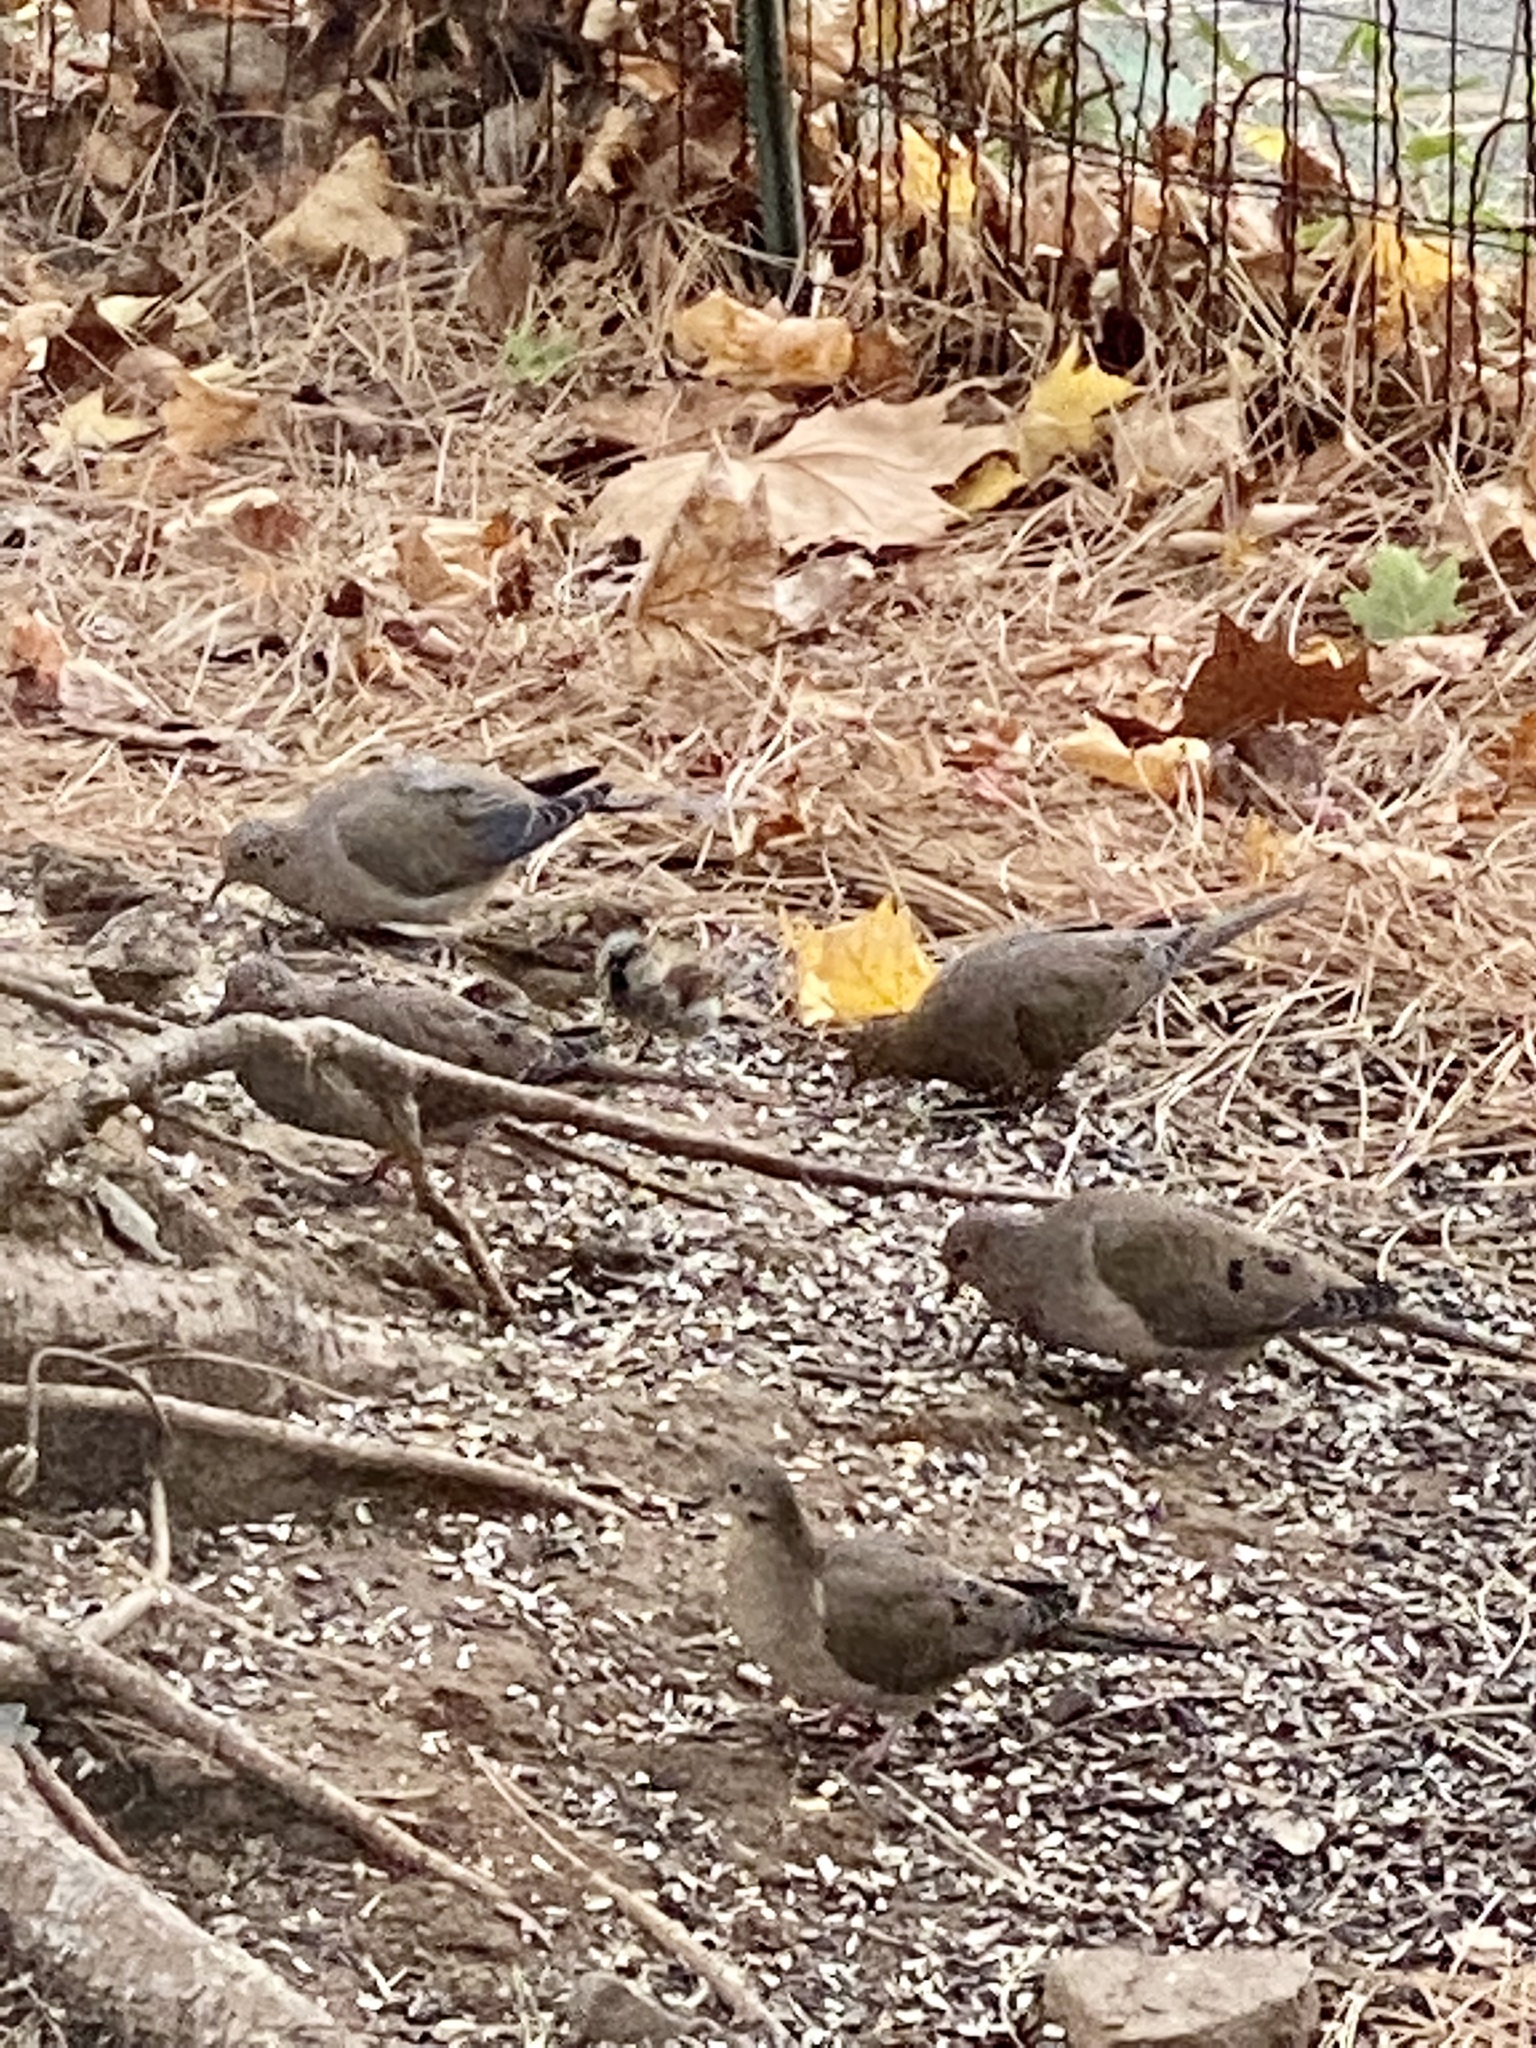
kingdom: Animalia
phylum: Chordata
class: Aves
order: Columbiformes
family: Columbidae
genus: Zenaida
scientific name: Zenaida macroura
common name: Mourning dove
